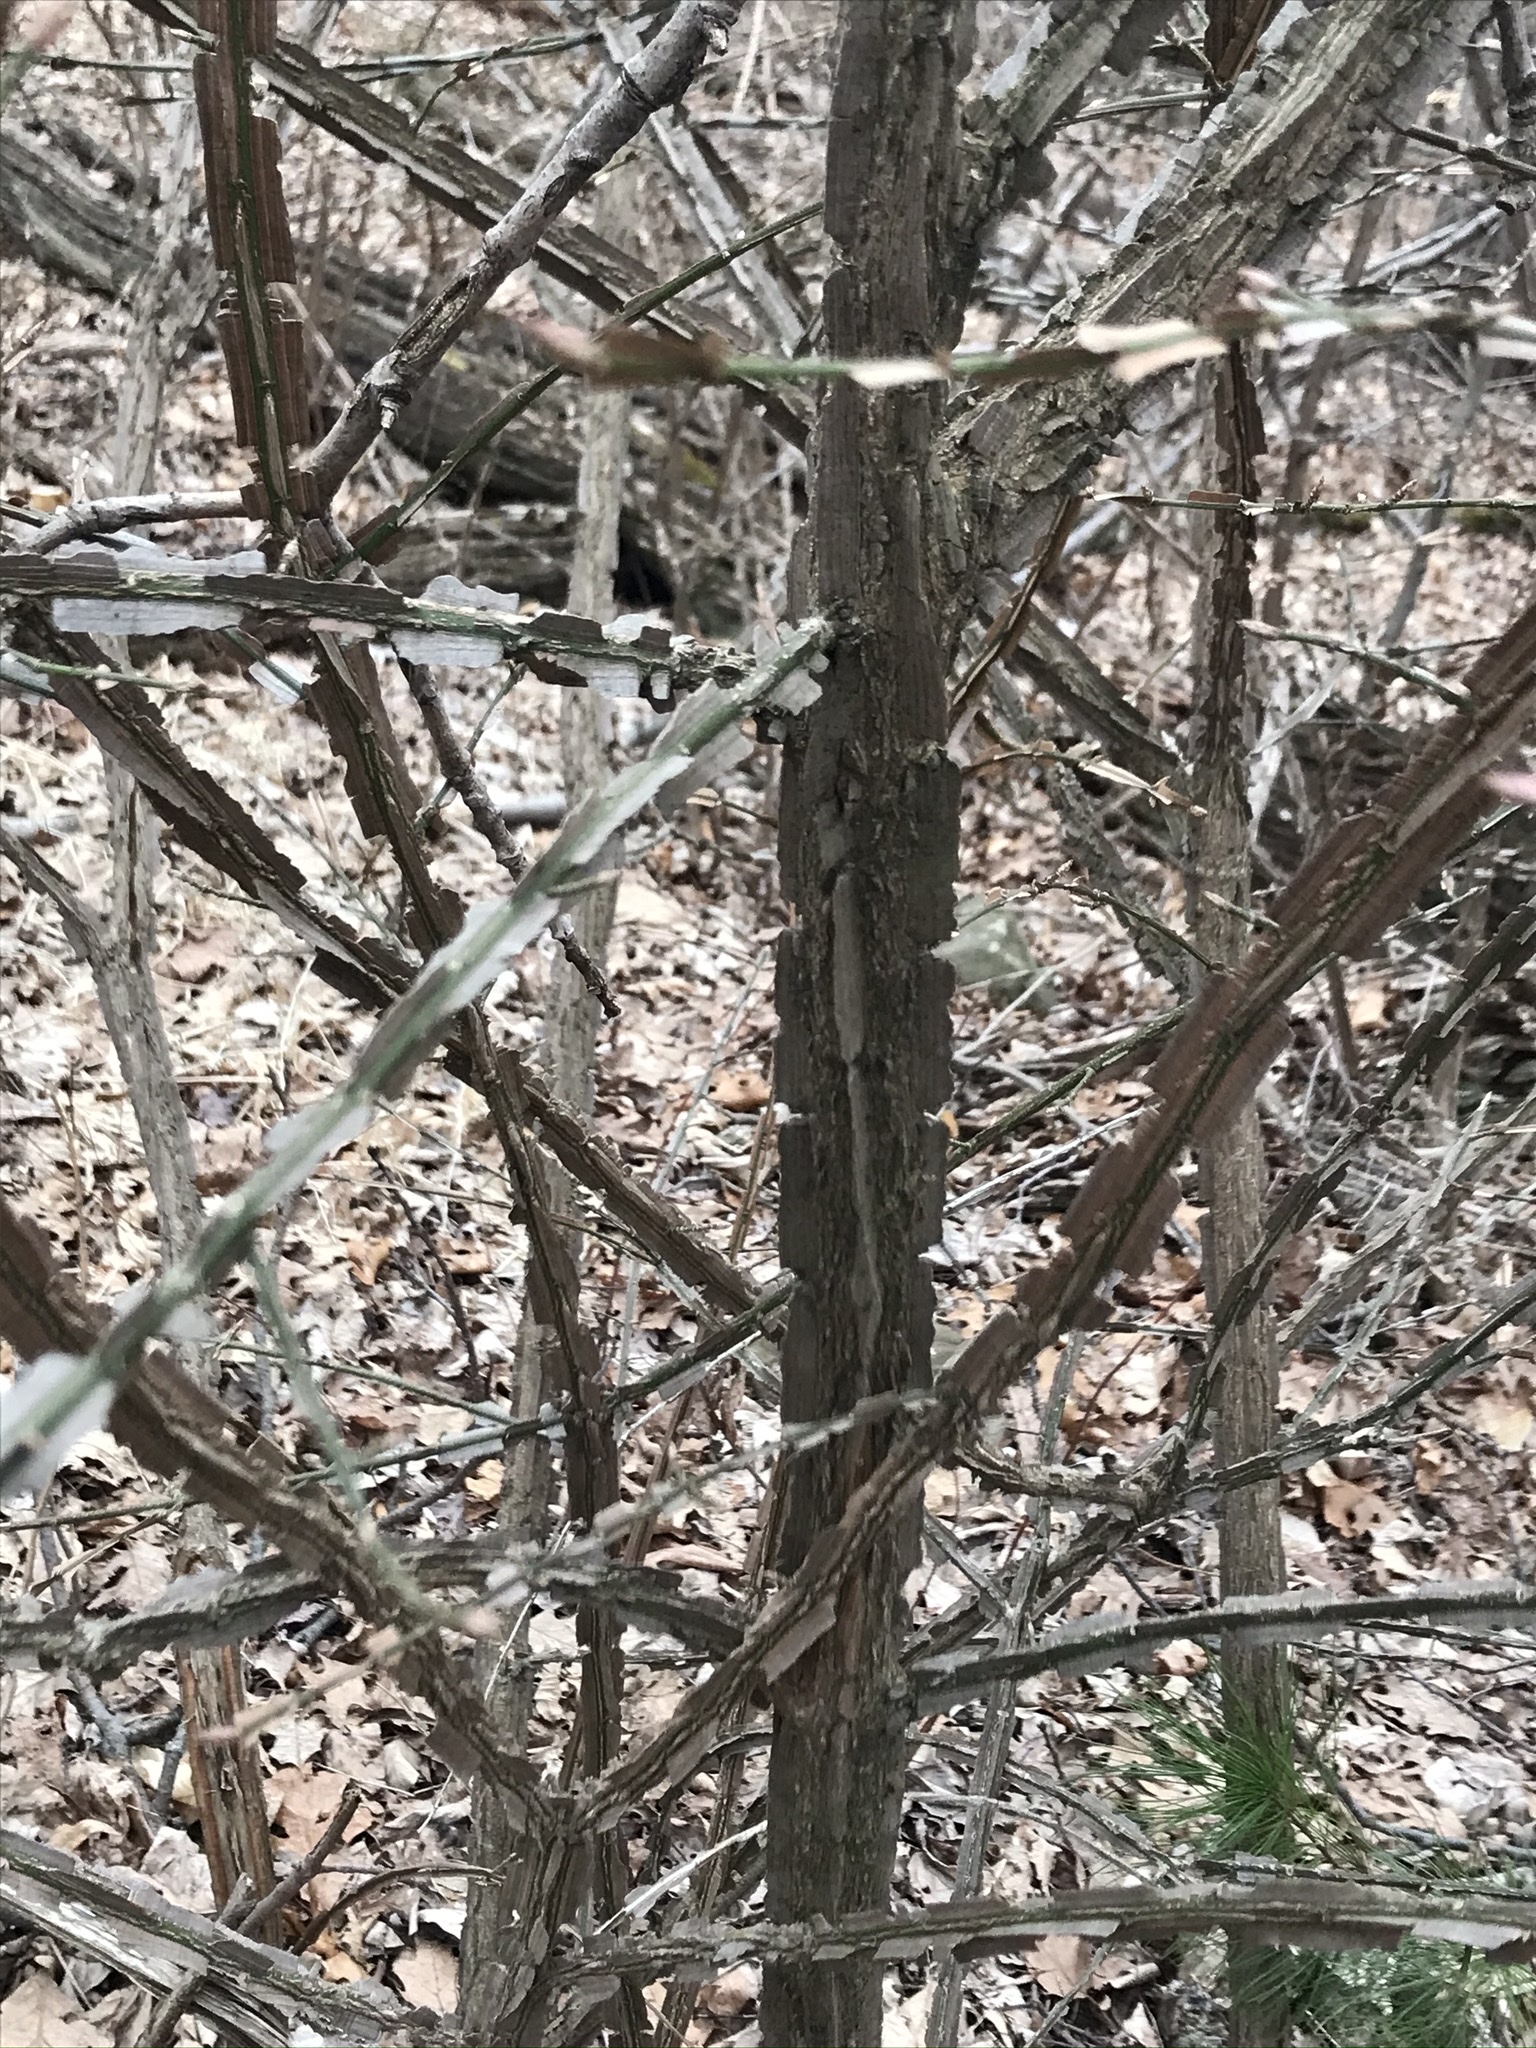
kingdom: Plantae
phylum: Tracheophyta
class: Magnoliopsida
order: Celastrales
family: Celastraceae
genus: Euonymus
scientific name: Euonymus alatus
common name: Winged euonymus
